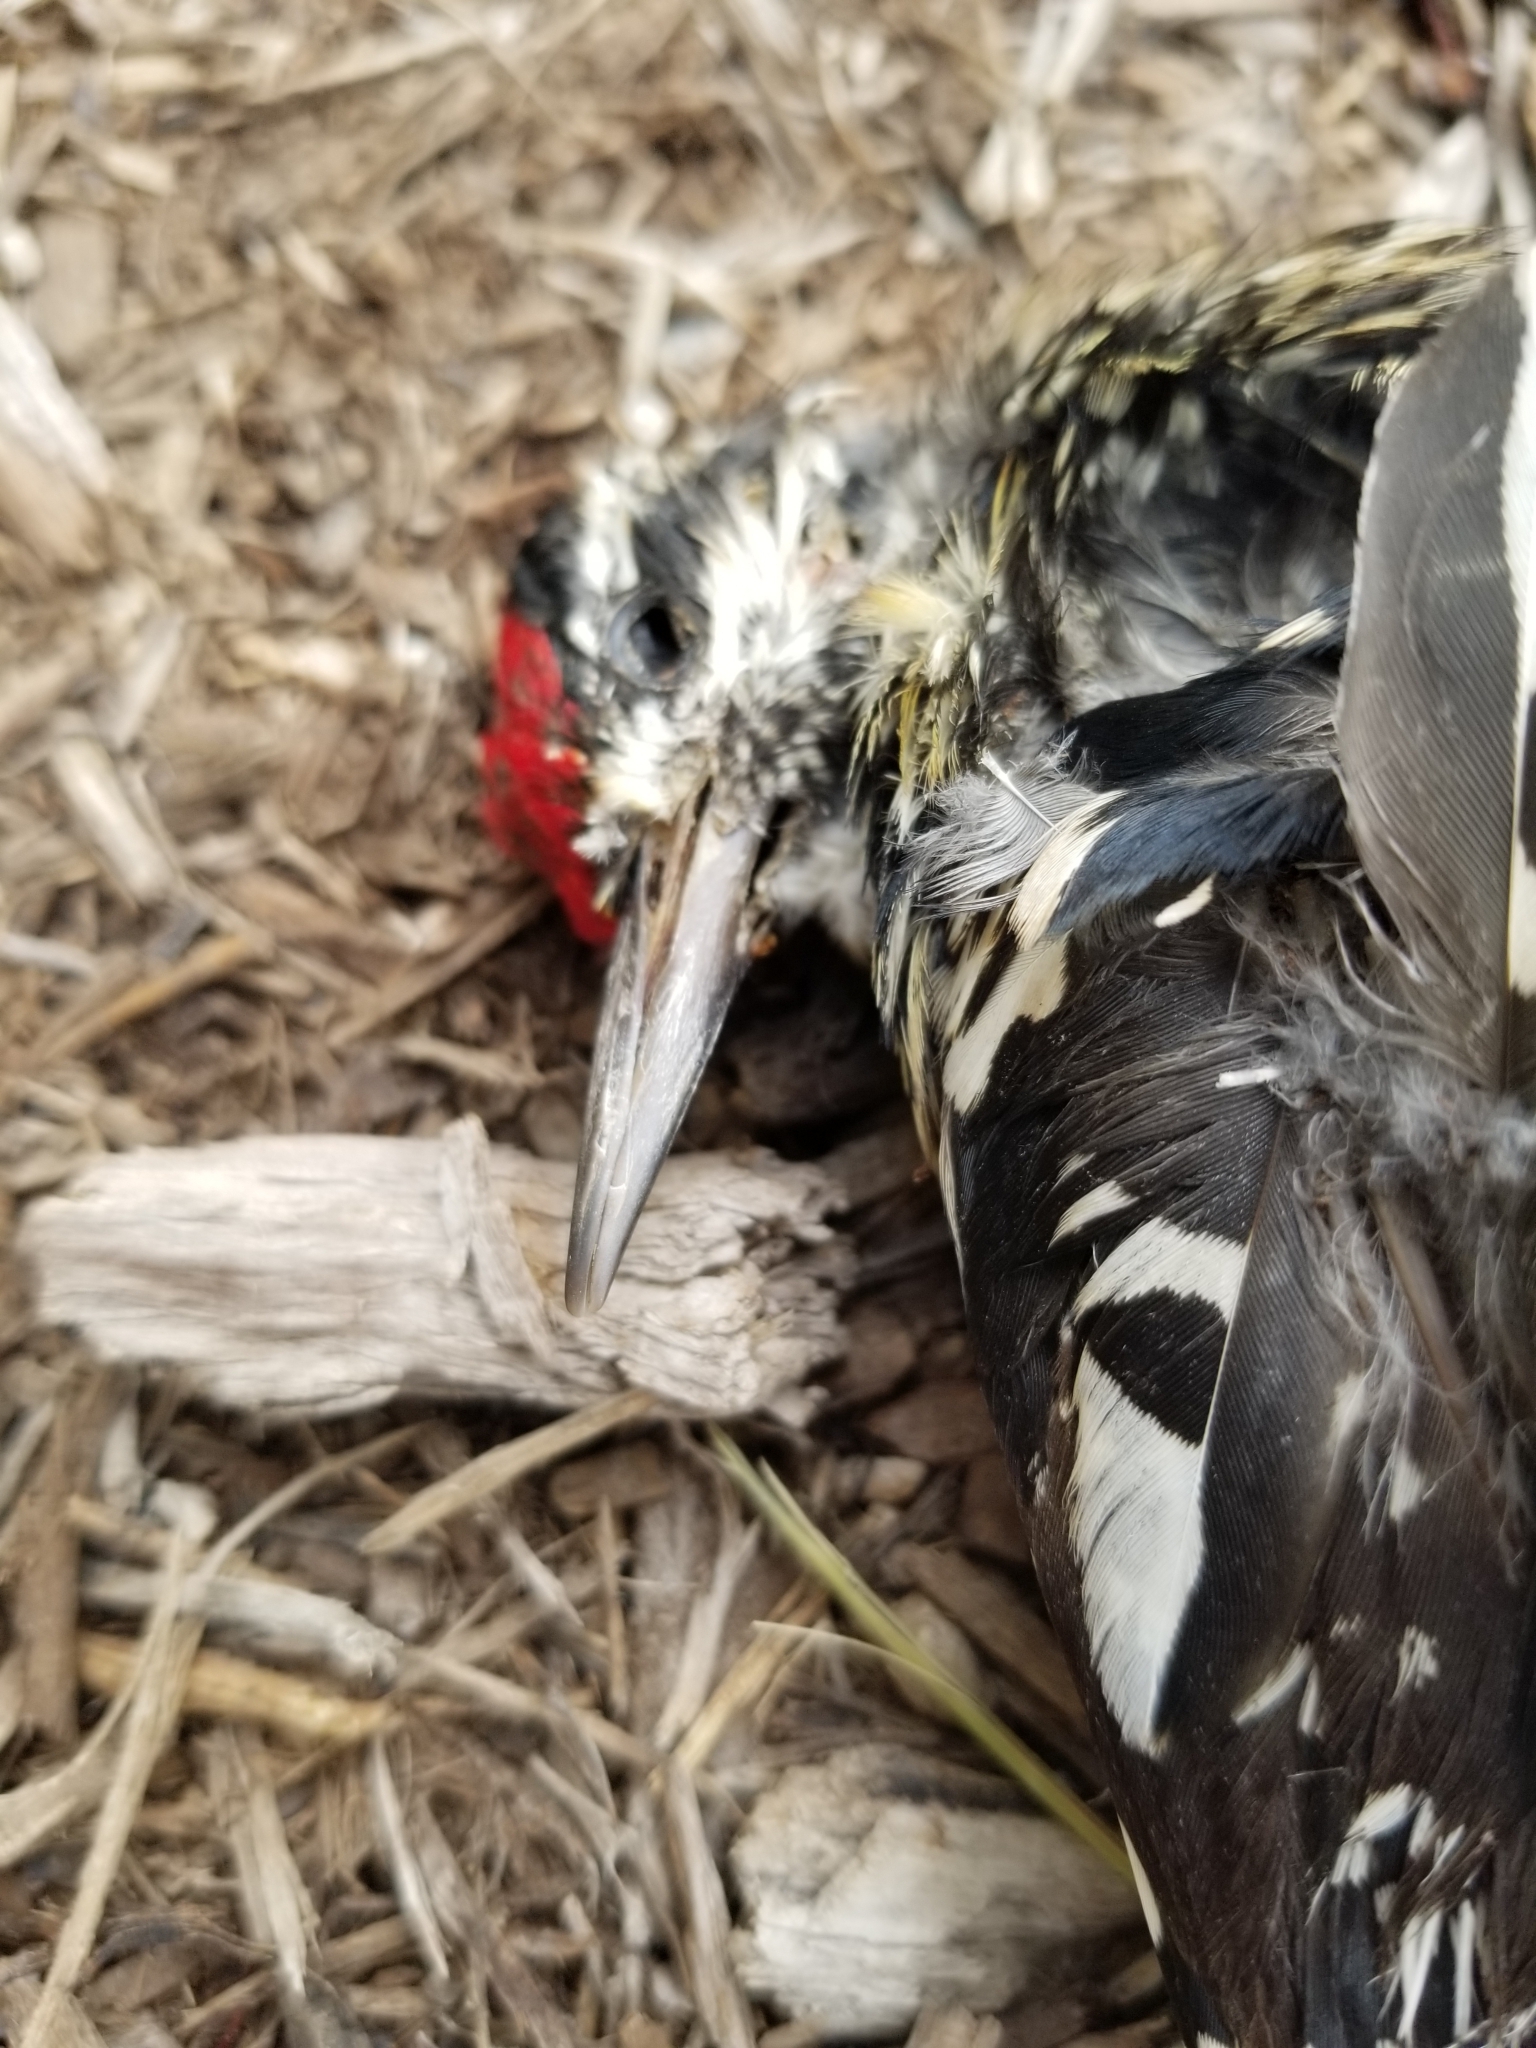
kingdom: Animalia
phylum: Chordata
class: Aves
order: Piciformes
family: Picidae
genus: Sphyrapicus
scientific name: Sphyrapicus varius
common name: Yellow-bellied sapsucker
